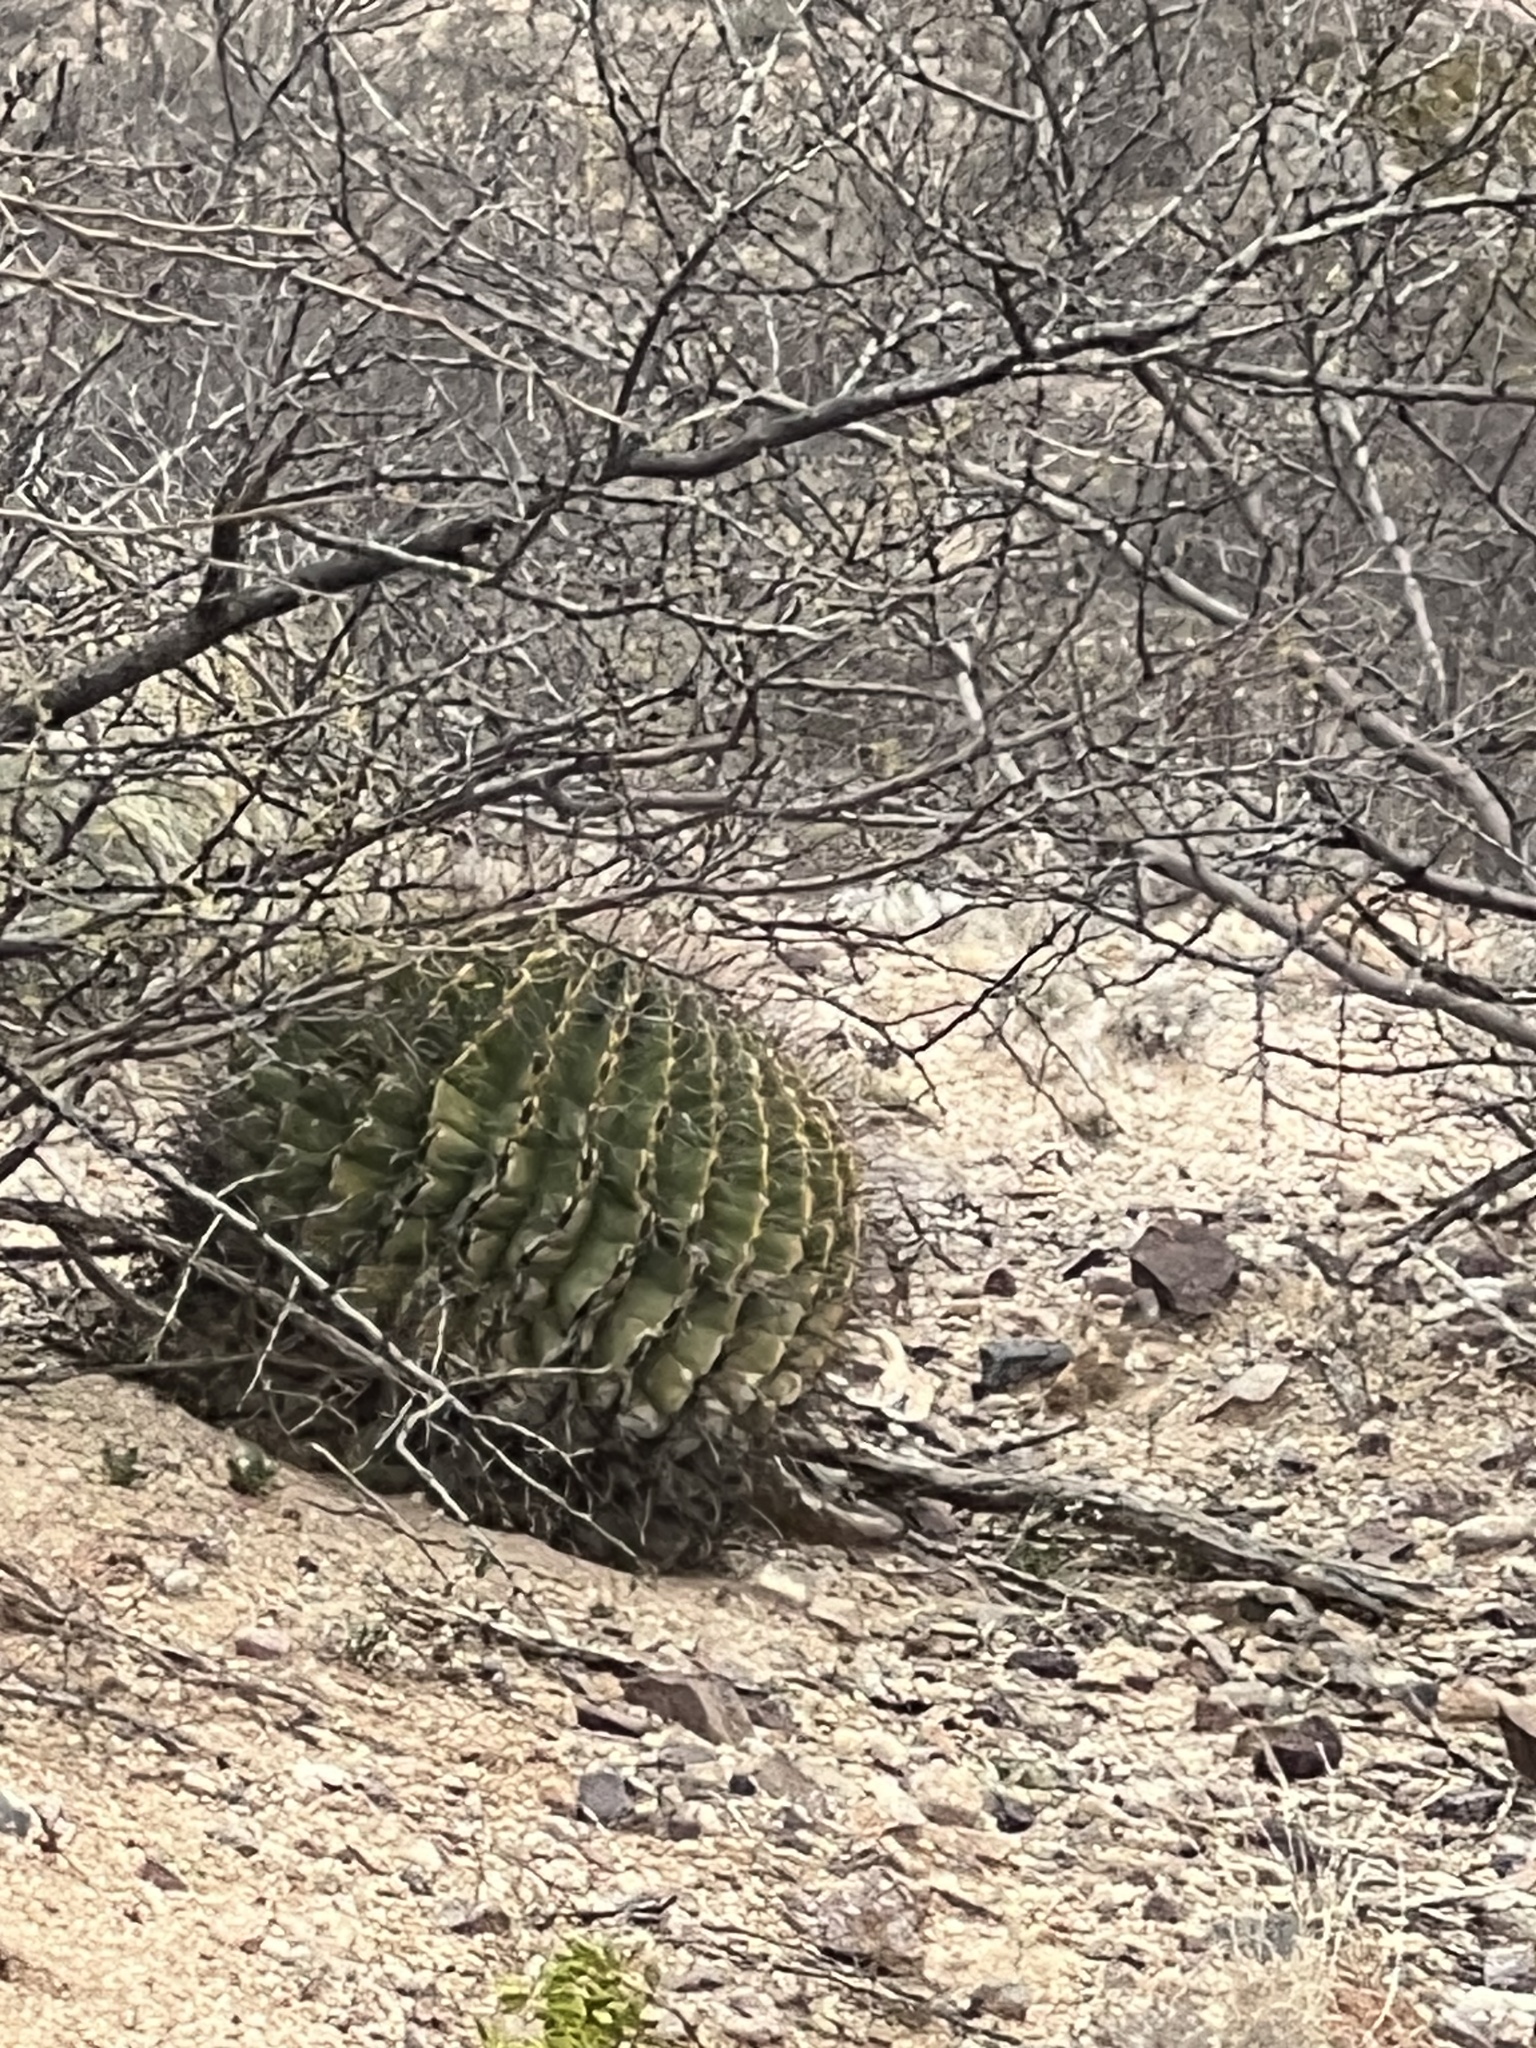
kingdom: Plantae
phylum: Tracheophyta
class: Magnoliopsida
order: Caryophyllales
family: Cactaceae
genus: Ferocactus
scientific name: Ferocactus wislizeni
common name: Candy barrel cactus
